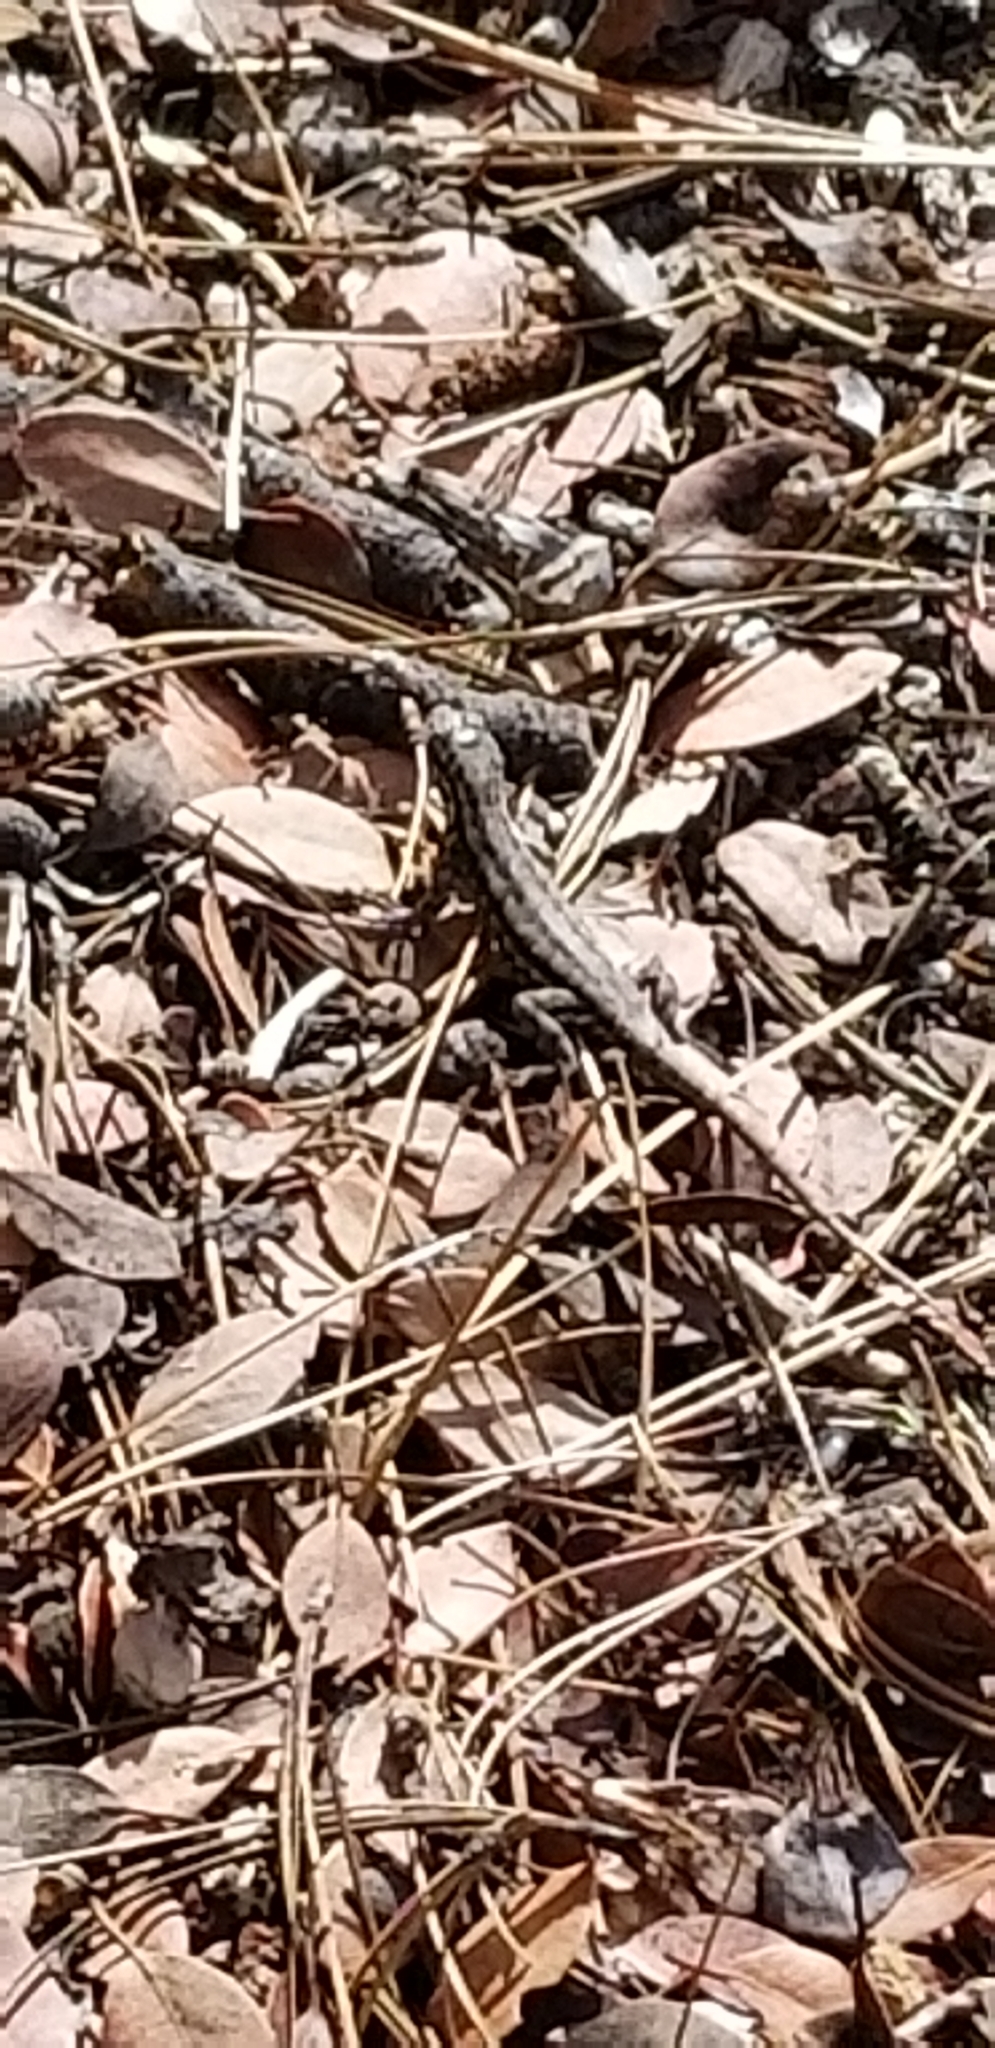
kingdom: Animalia
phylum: Chordata
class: Squamata
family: Phrynosomatidae
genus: Sceloporus
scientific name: Sceloporus graciosus
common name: Sagebrush lizard
